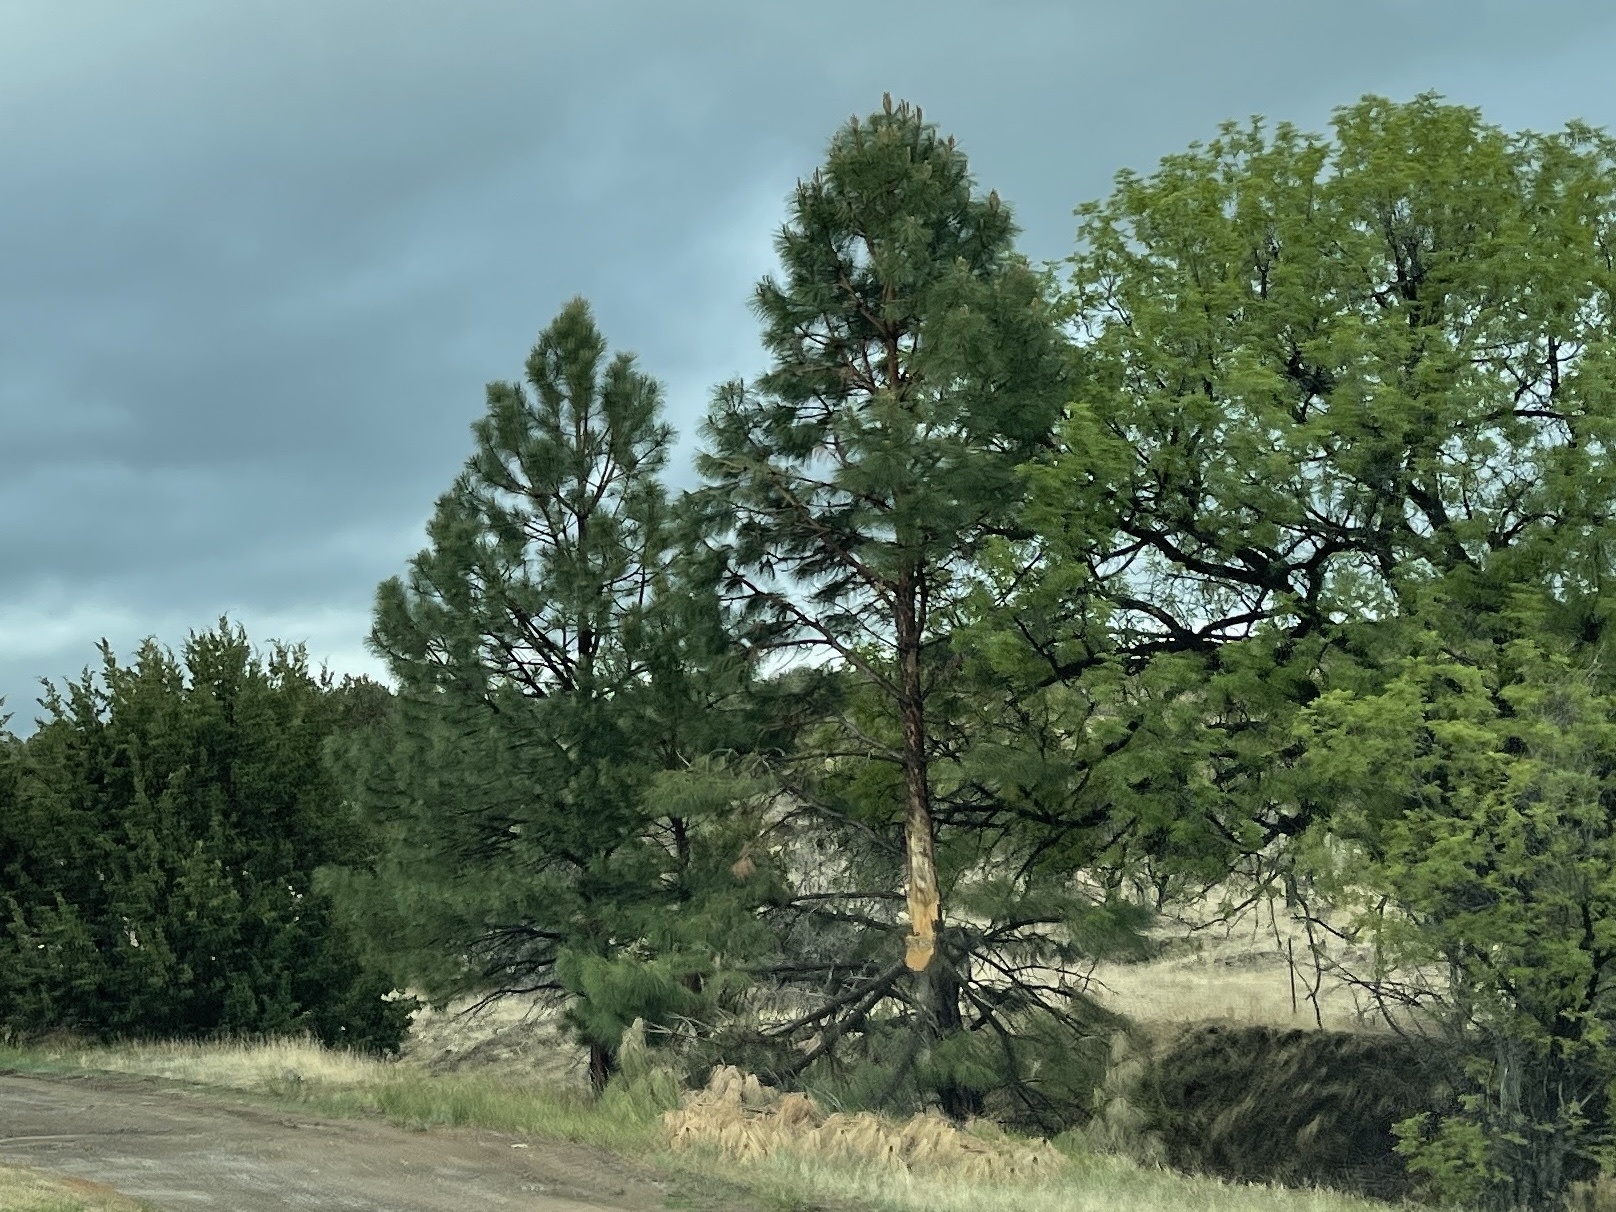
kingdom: Plantae
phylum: Tracheophyta
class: Pinopsida
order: Pinales
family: Pinaceae
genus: Pinus
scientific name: Pinus ponderosa
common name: Western yellow-pine
